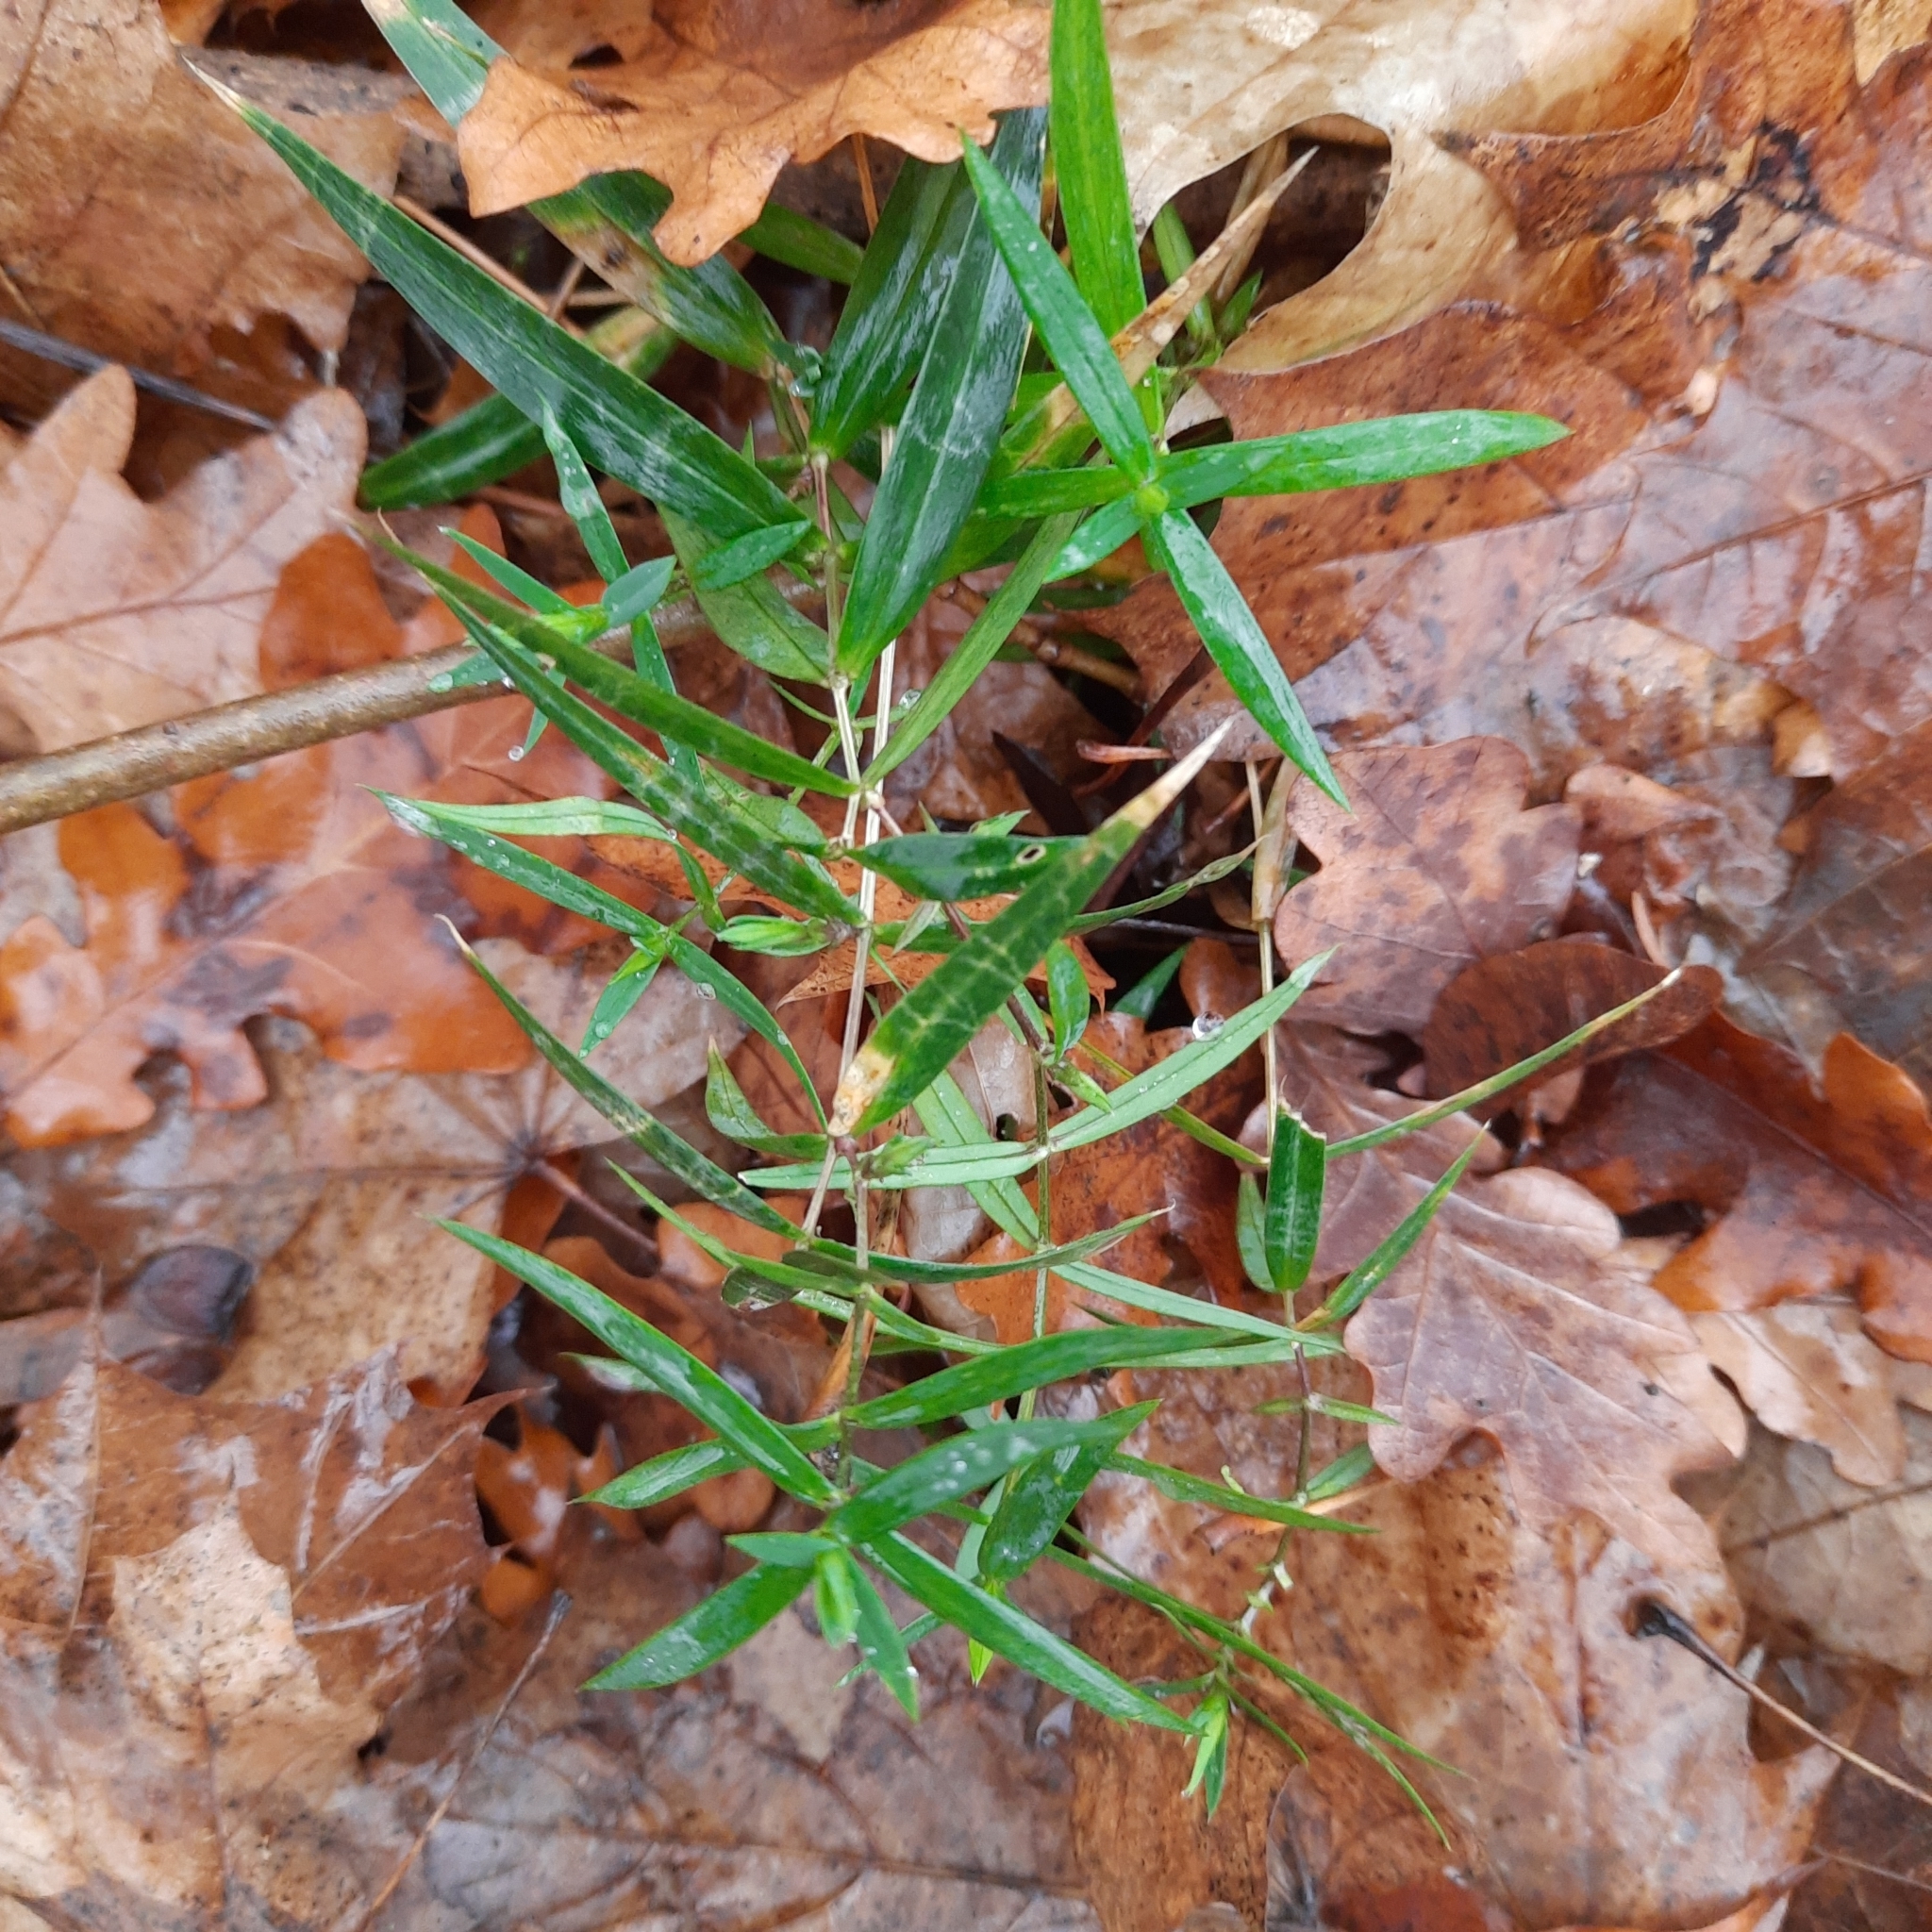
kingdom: Plantae
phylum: Tracheophyta
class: Magnoliopsida
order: Caryophyllales
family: Caryophyllaceae
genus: Rabelera
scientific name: Rabelera holostea
